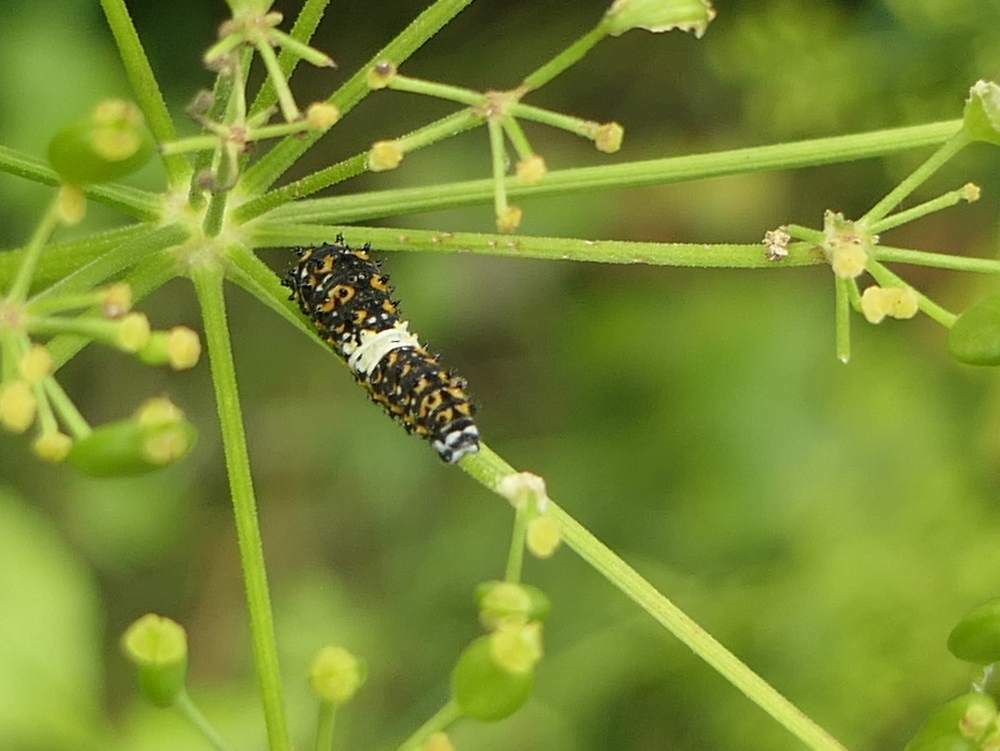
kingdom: Animalia
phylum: Arthropoda
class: Insecta
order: Lepidoptera
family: Papilionidae
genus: Papilio
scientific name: Papilio polyxenes
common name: Black swallowtail
